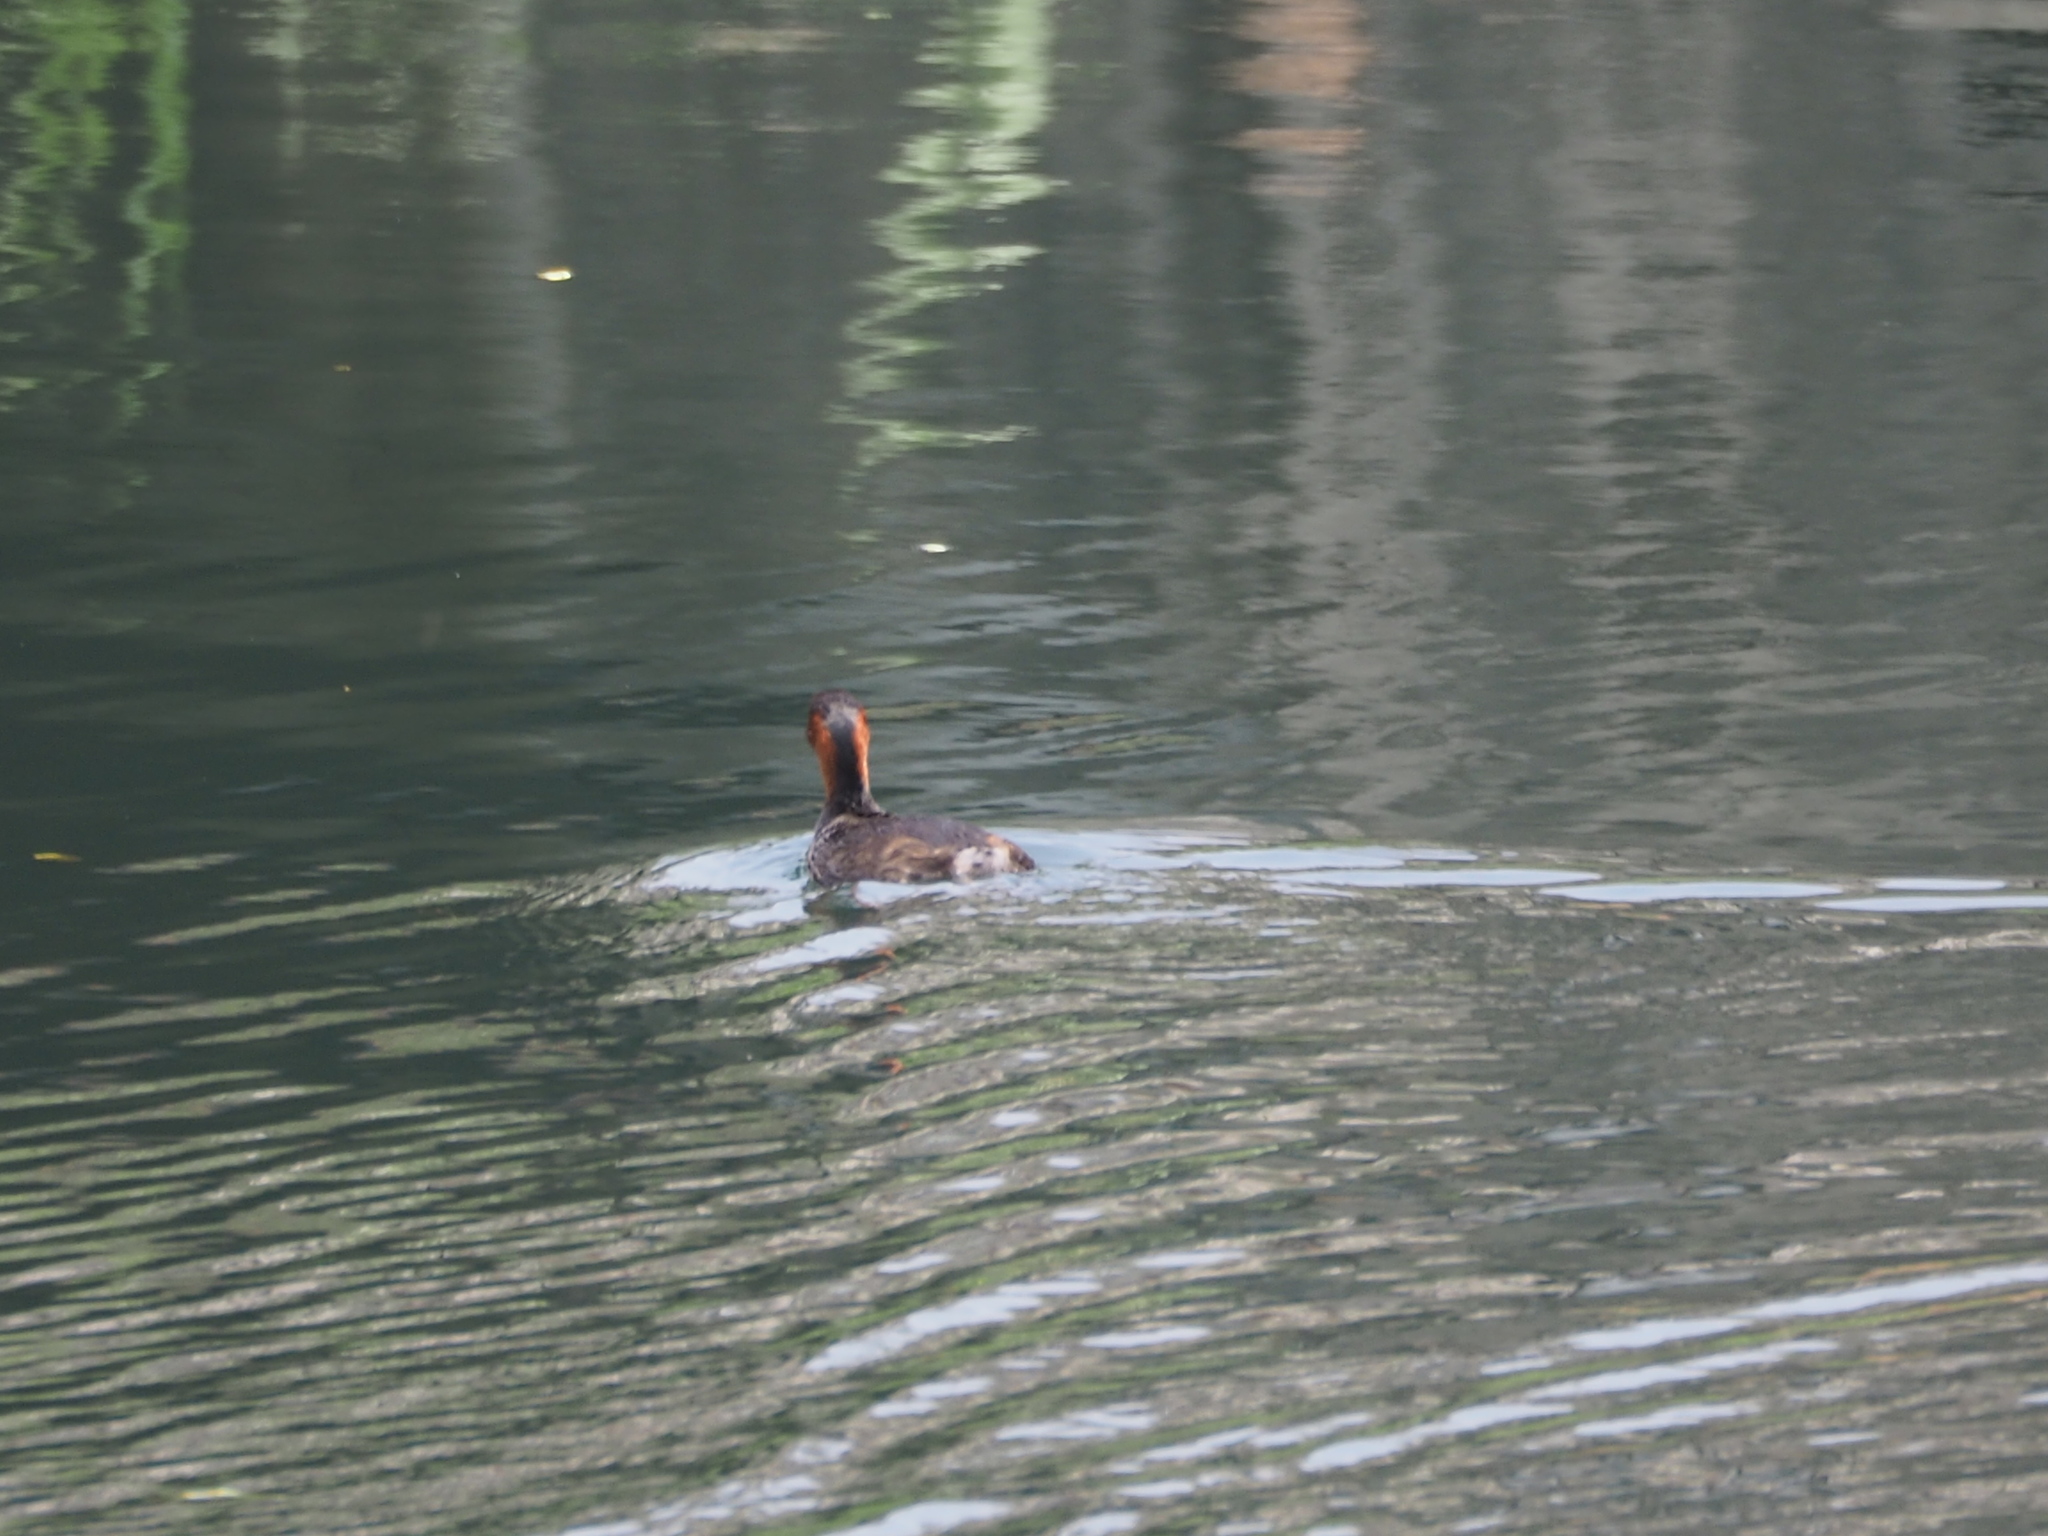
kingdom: Animalia
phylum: Chordata
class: Aves
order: Podicipediformes
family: Podicipedidae
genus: Tachybaptus
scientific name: Tachybaptus ruficollis
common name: Little grebe
